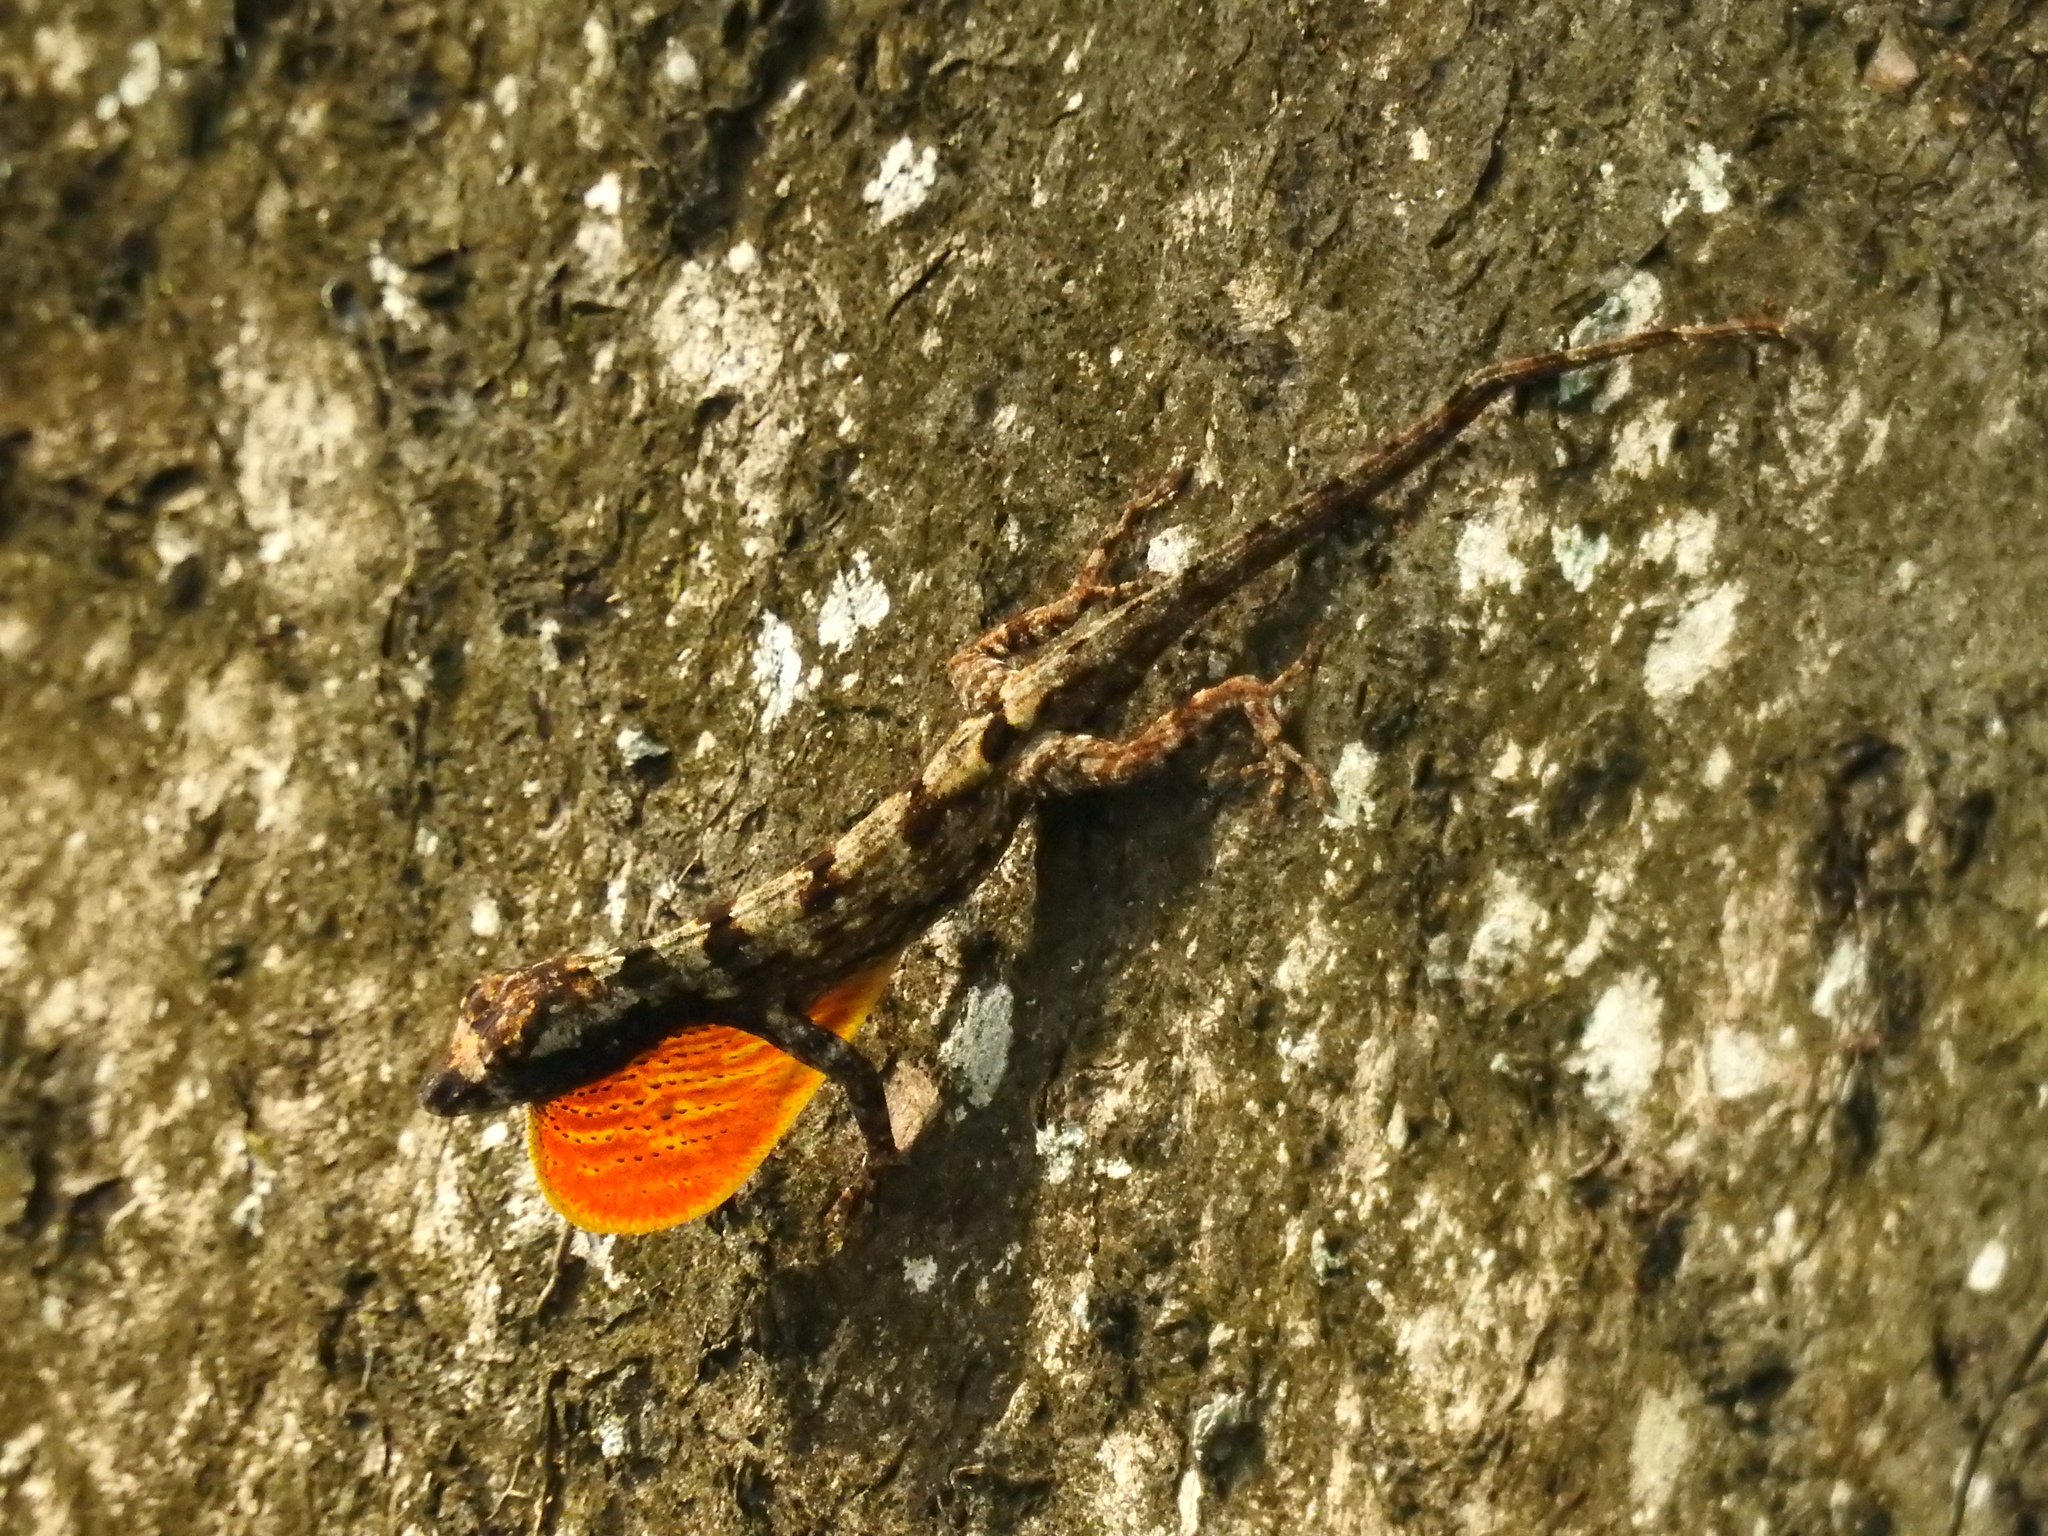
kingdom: Animalia
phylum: Chordata
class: Squamata
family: Dactyloidae
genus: Anolis
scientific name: Anolis ortonii
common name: Bark anole
